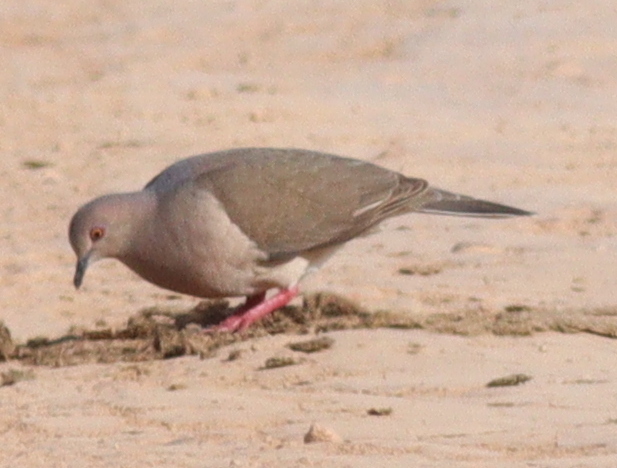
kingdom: Animalia
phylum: Chordata
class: Aves
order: Columbiformes
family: Columbidae
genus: Leptotila
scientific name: Leptotila verreauxi
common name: White-tipped dove
